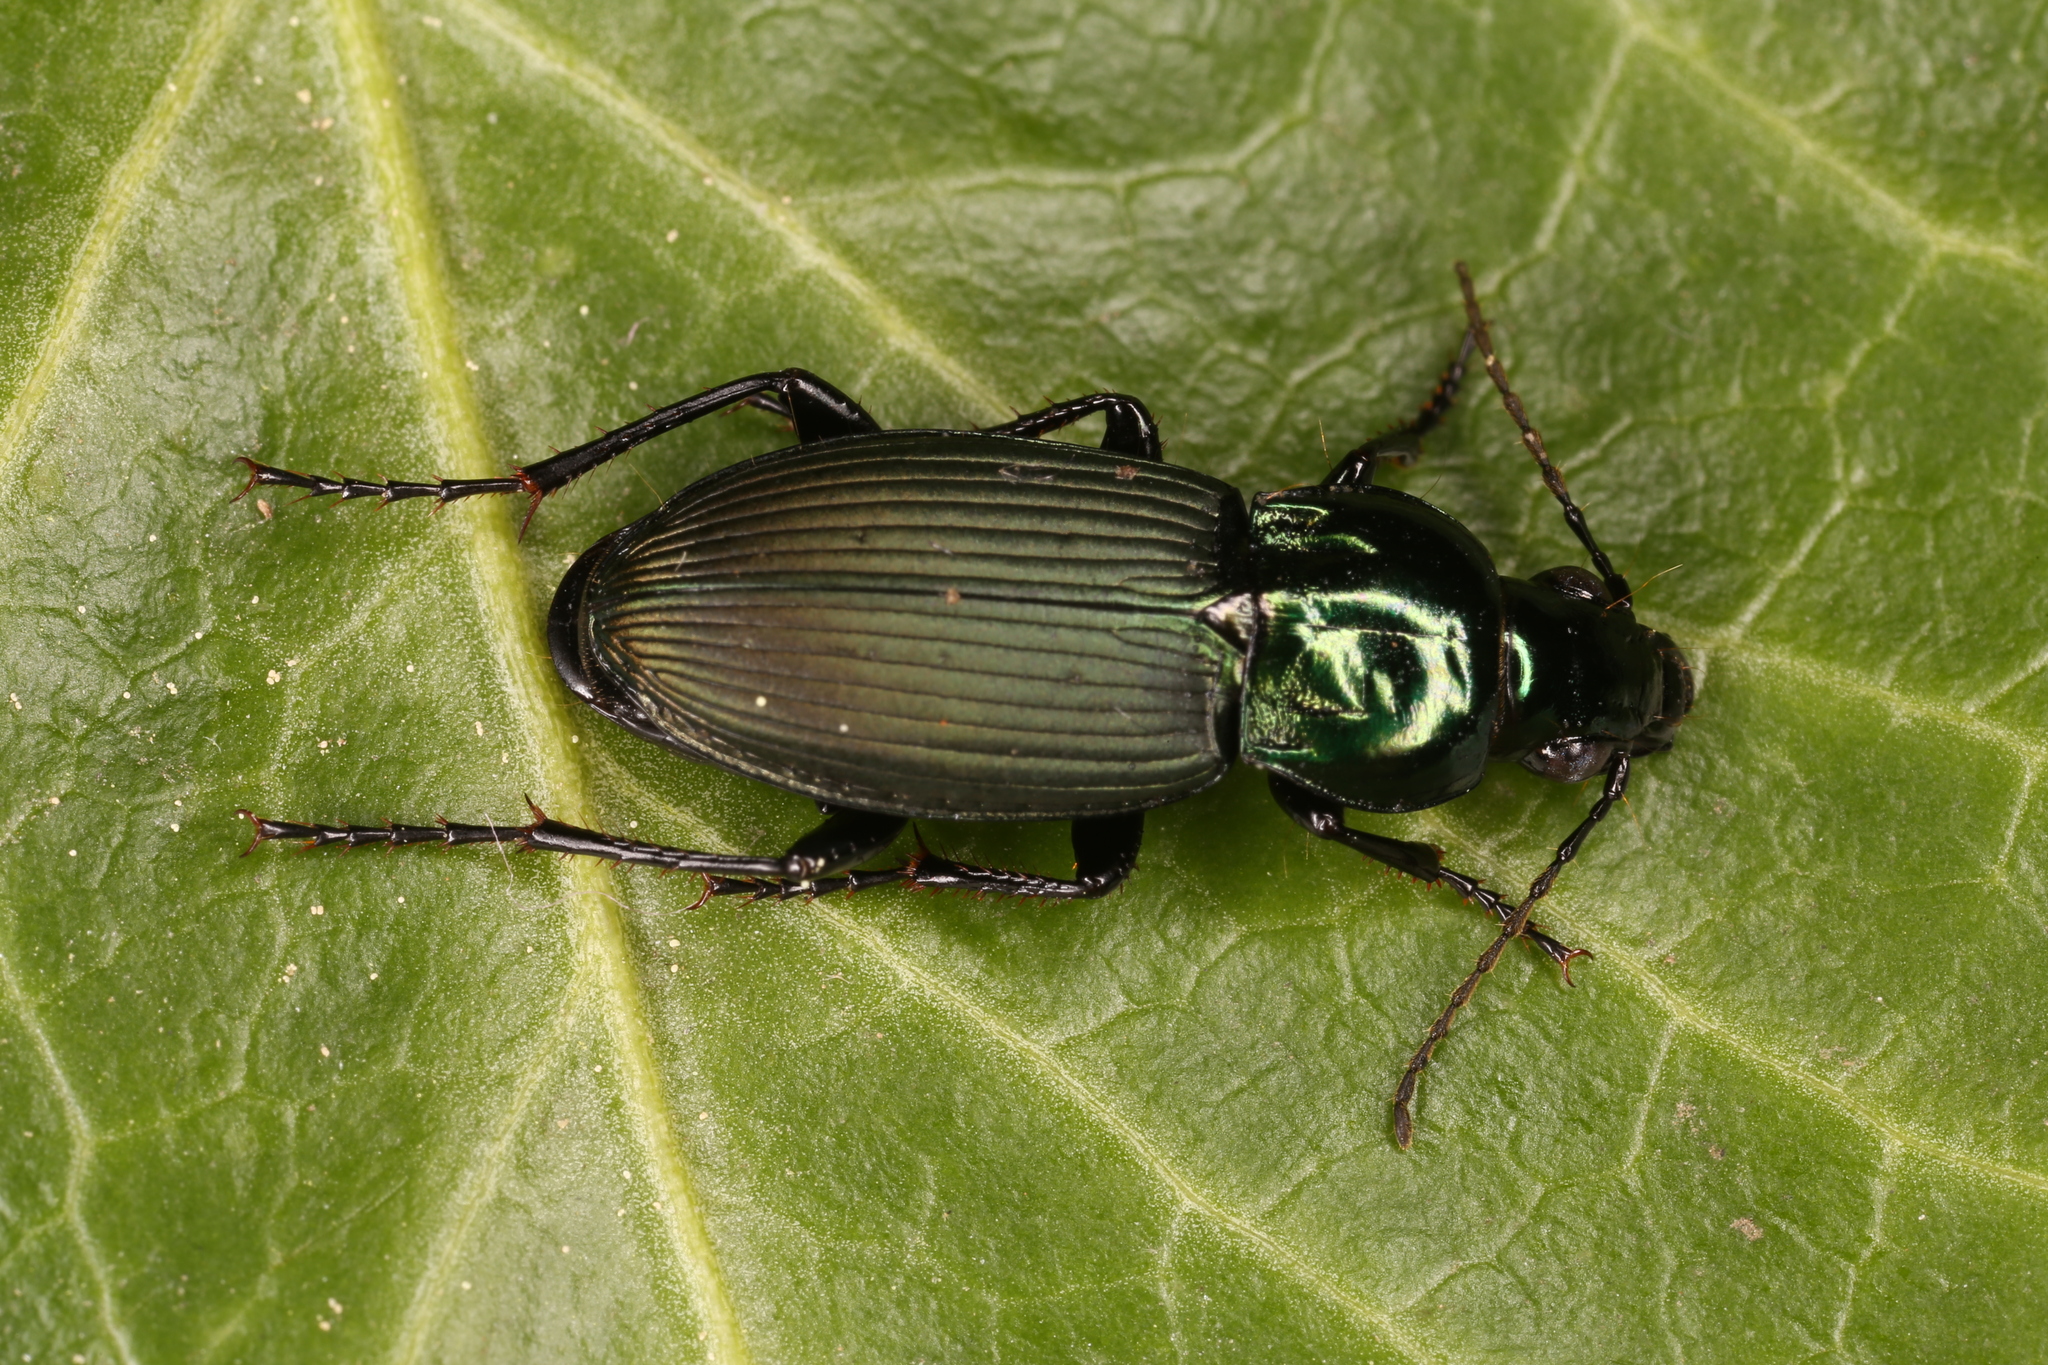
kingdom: Animalia
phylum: Arthropoda
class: Insecta
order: Coleoptera
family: Carabidae
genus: Poecilus
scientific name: Poecilus lepidus
